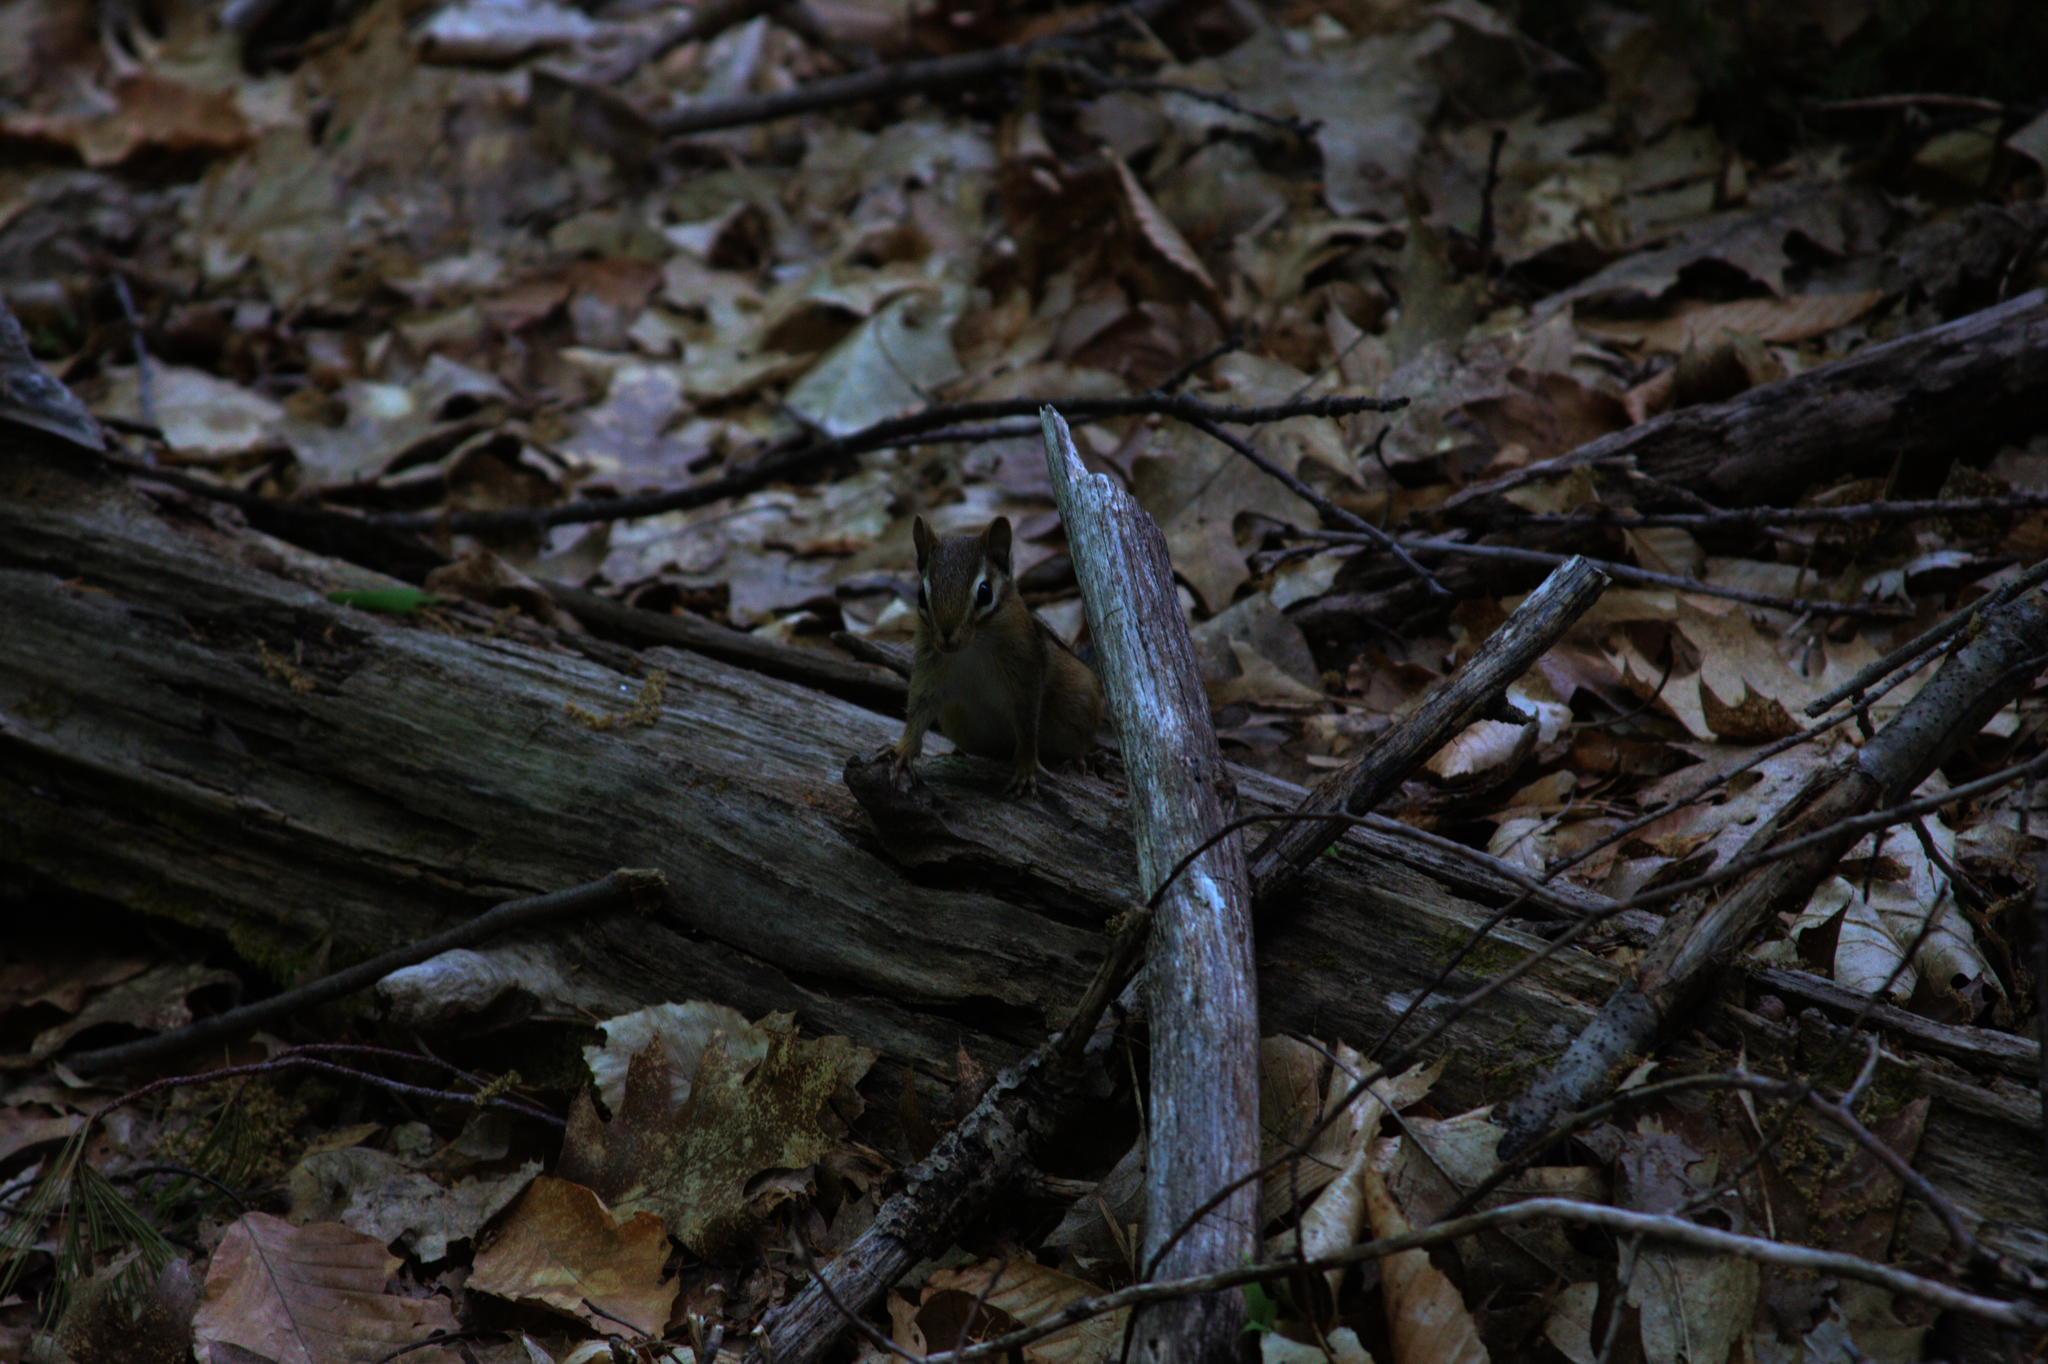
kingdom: Animalia
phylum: Chordata
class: Mammalia
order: Rodentia
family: Sciuridae
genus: Tamias
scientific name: Tamias striatus
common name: Eastern chipmunk
